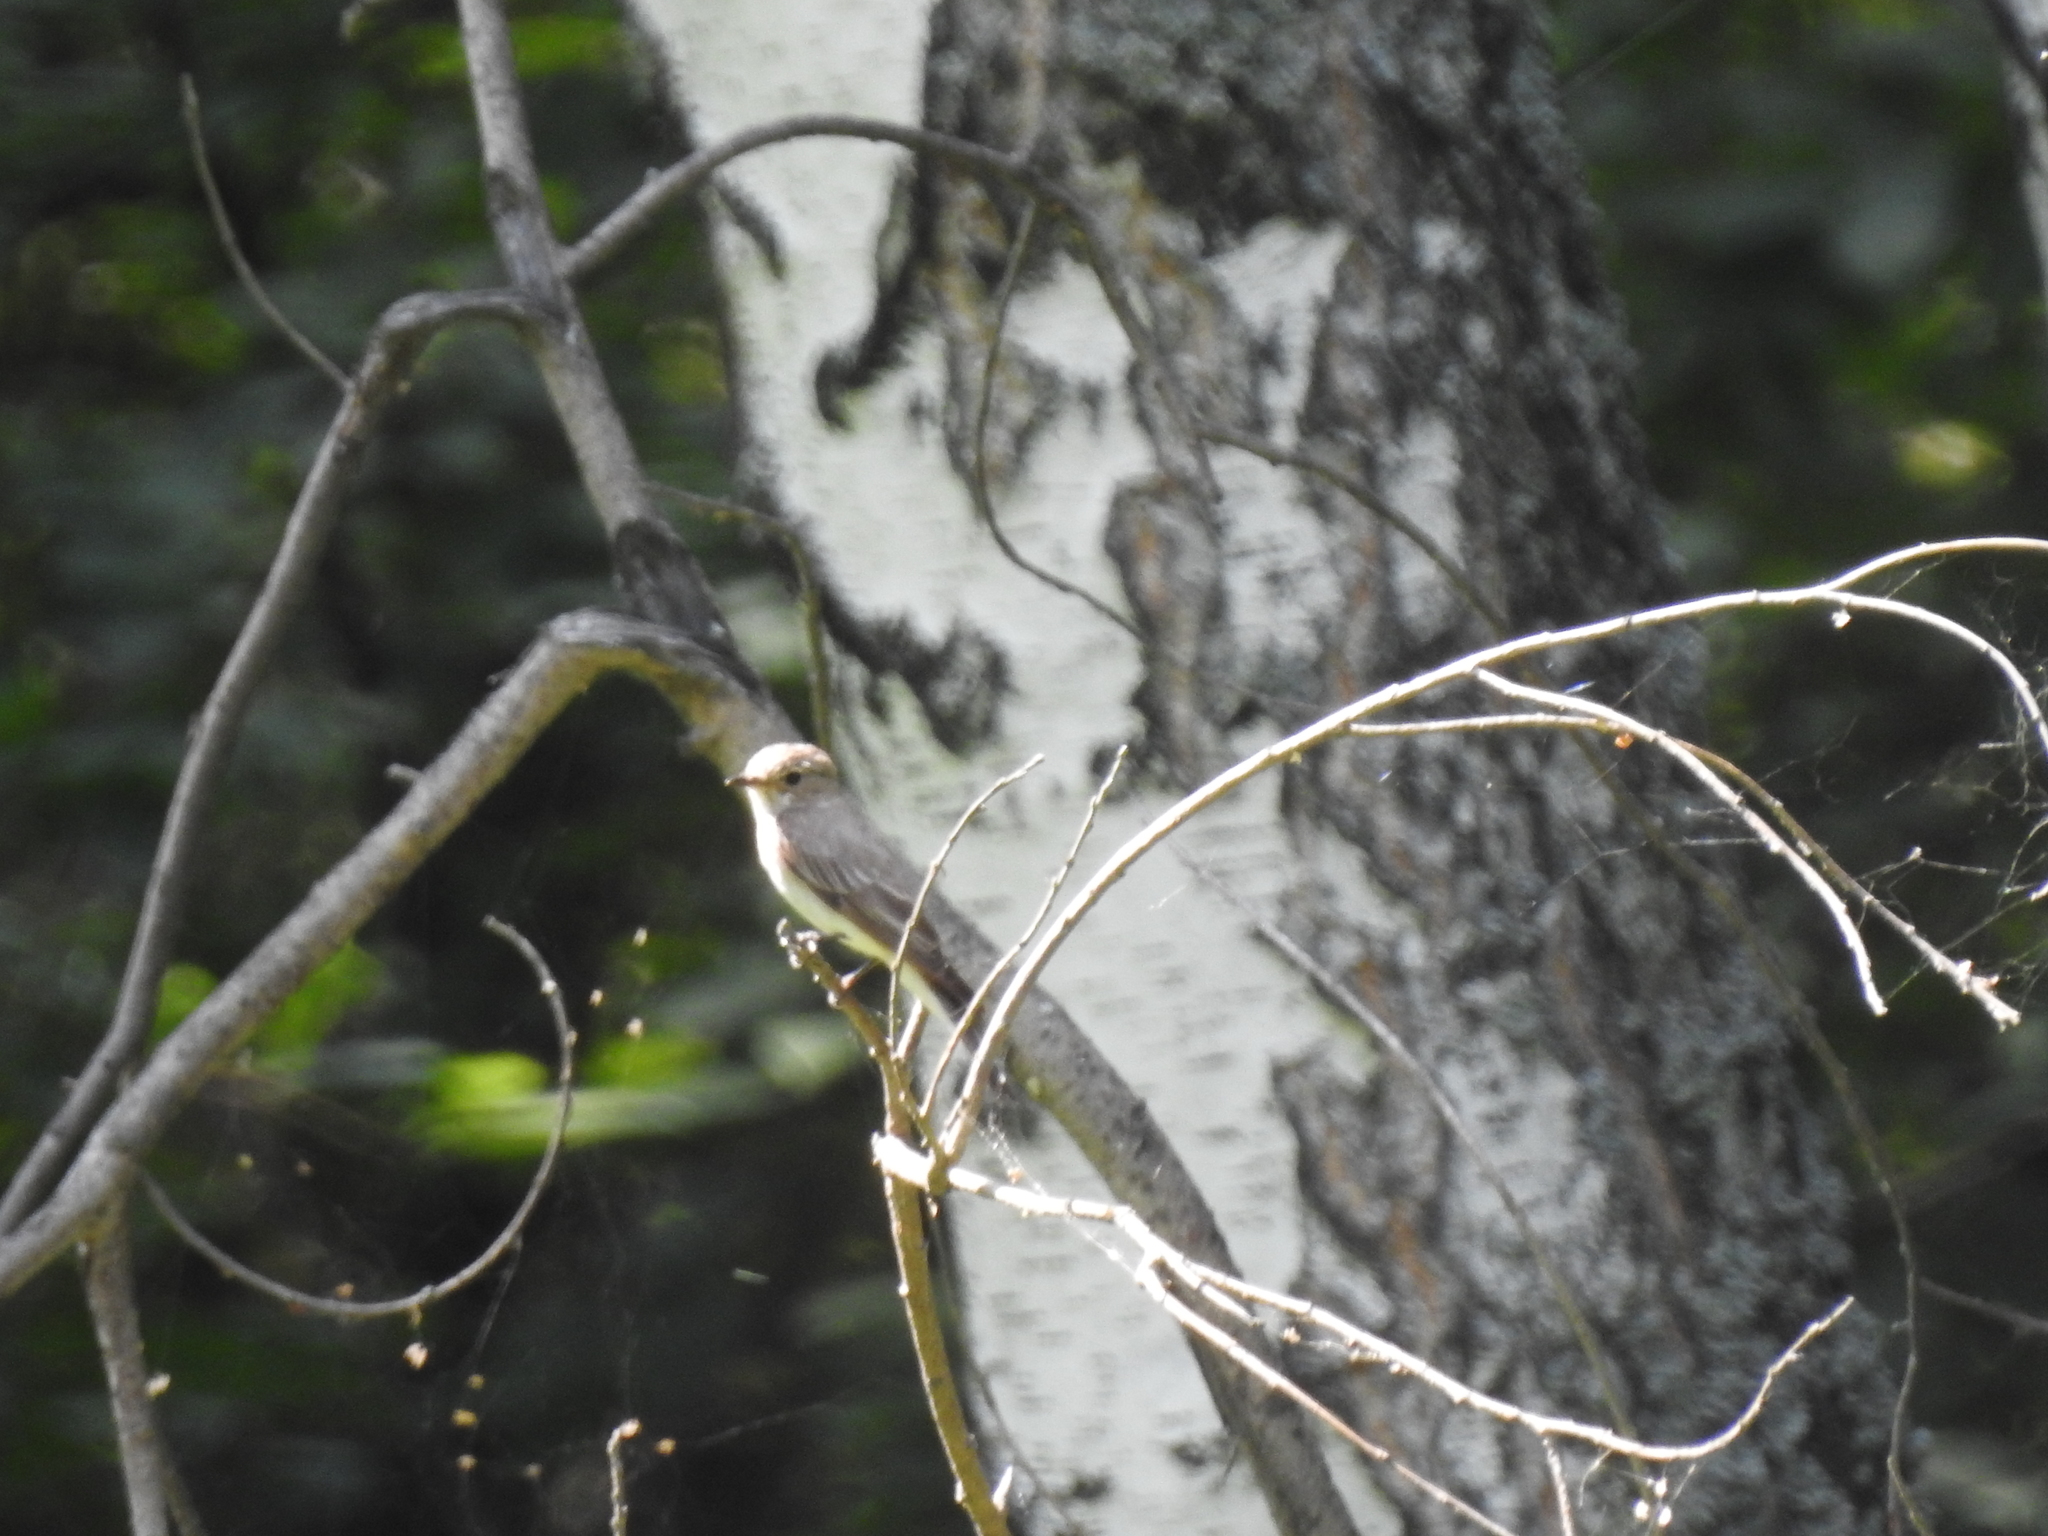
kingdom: Animalia
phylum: Chordata
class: Aves
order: Passeriformes
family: Muscicapidae
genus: Muscicapa
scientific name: Muscicapa striata
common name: Spotted flycatcher
